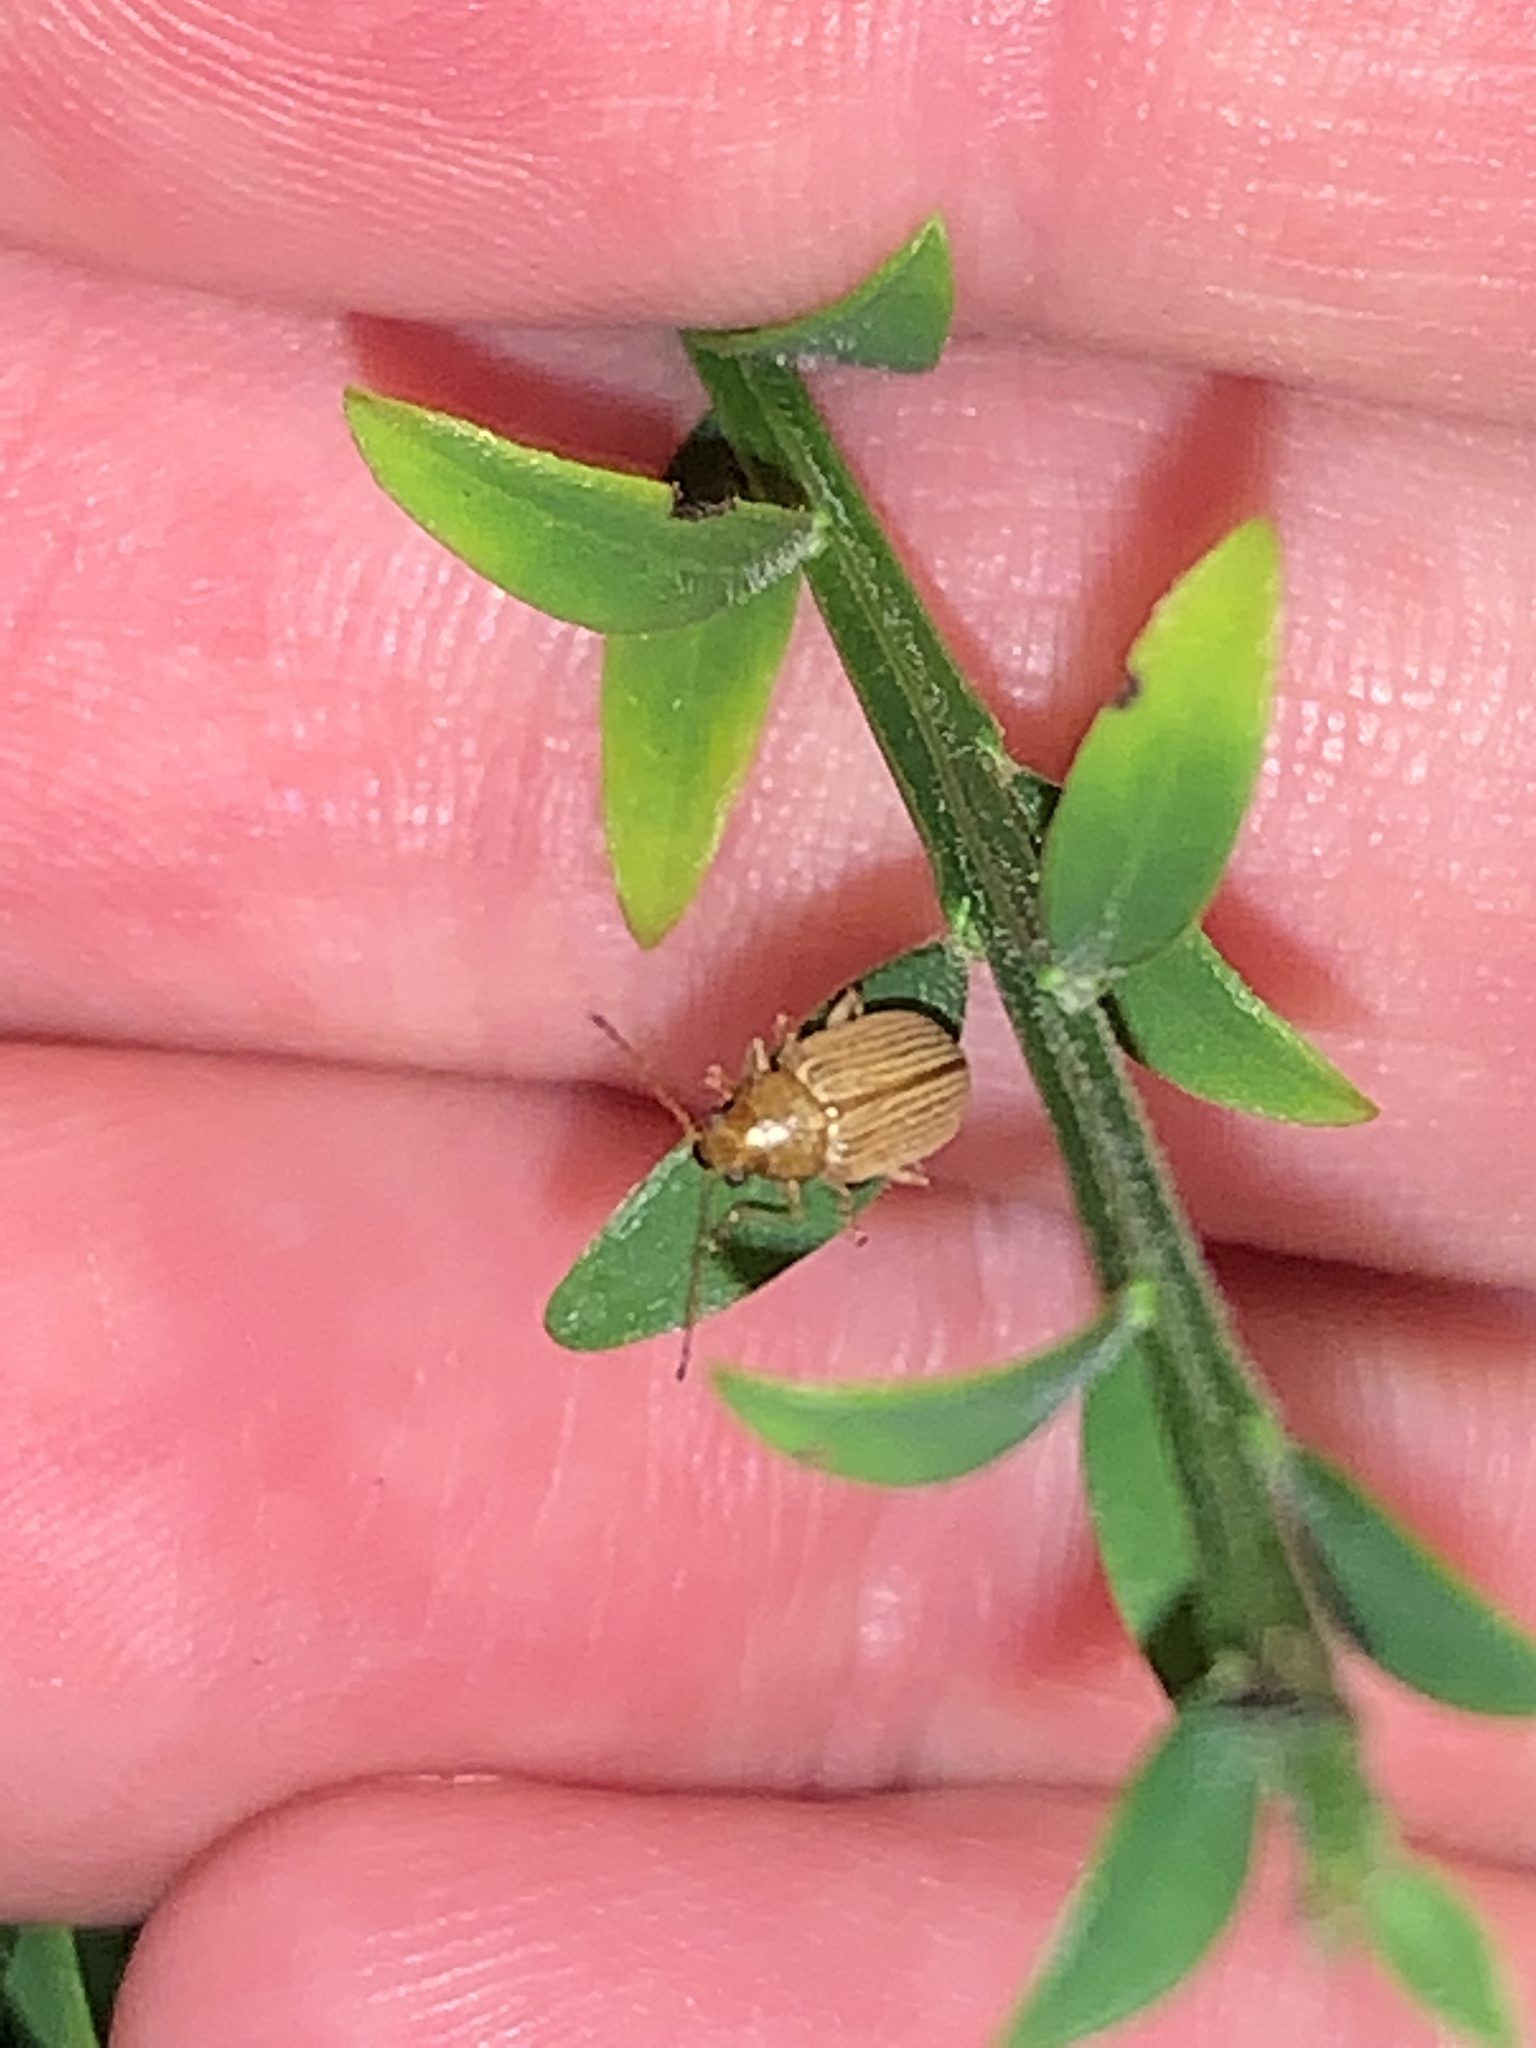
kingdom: Animalia
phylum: Arthropoda
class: Insecta
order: Coleoptera
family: Chrysomelidae
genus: Colaspis
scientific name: Colaspis brunnea
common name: Grape colaspis
